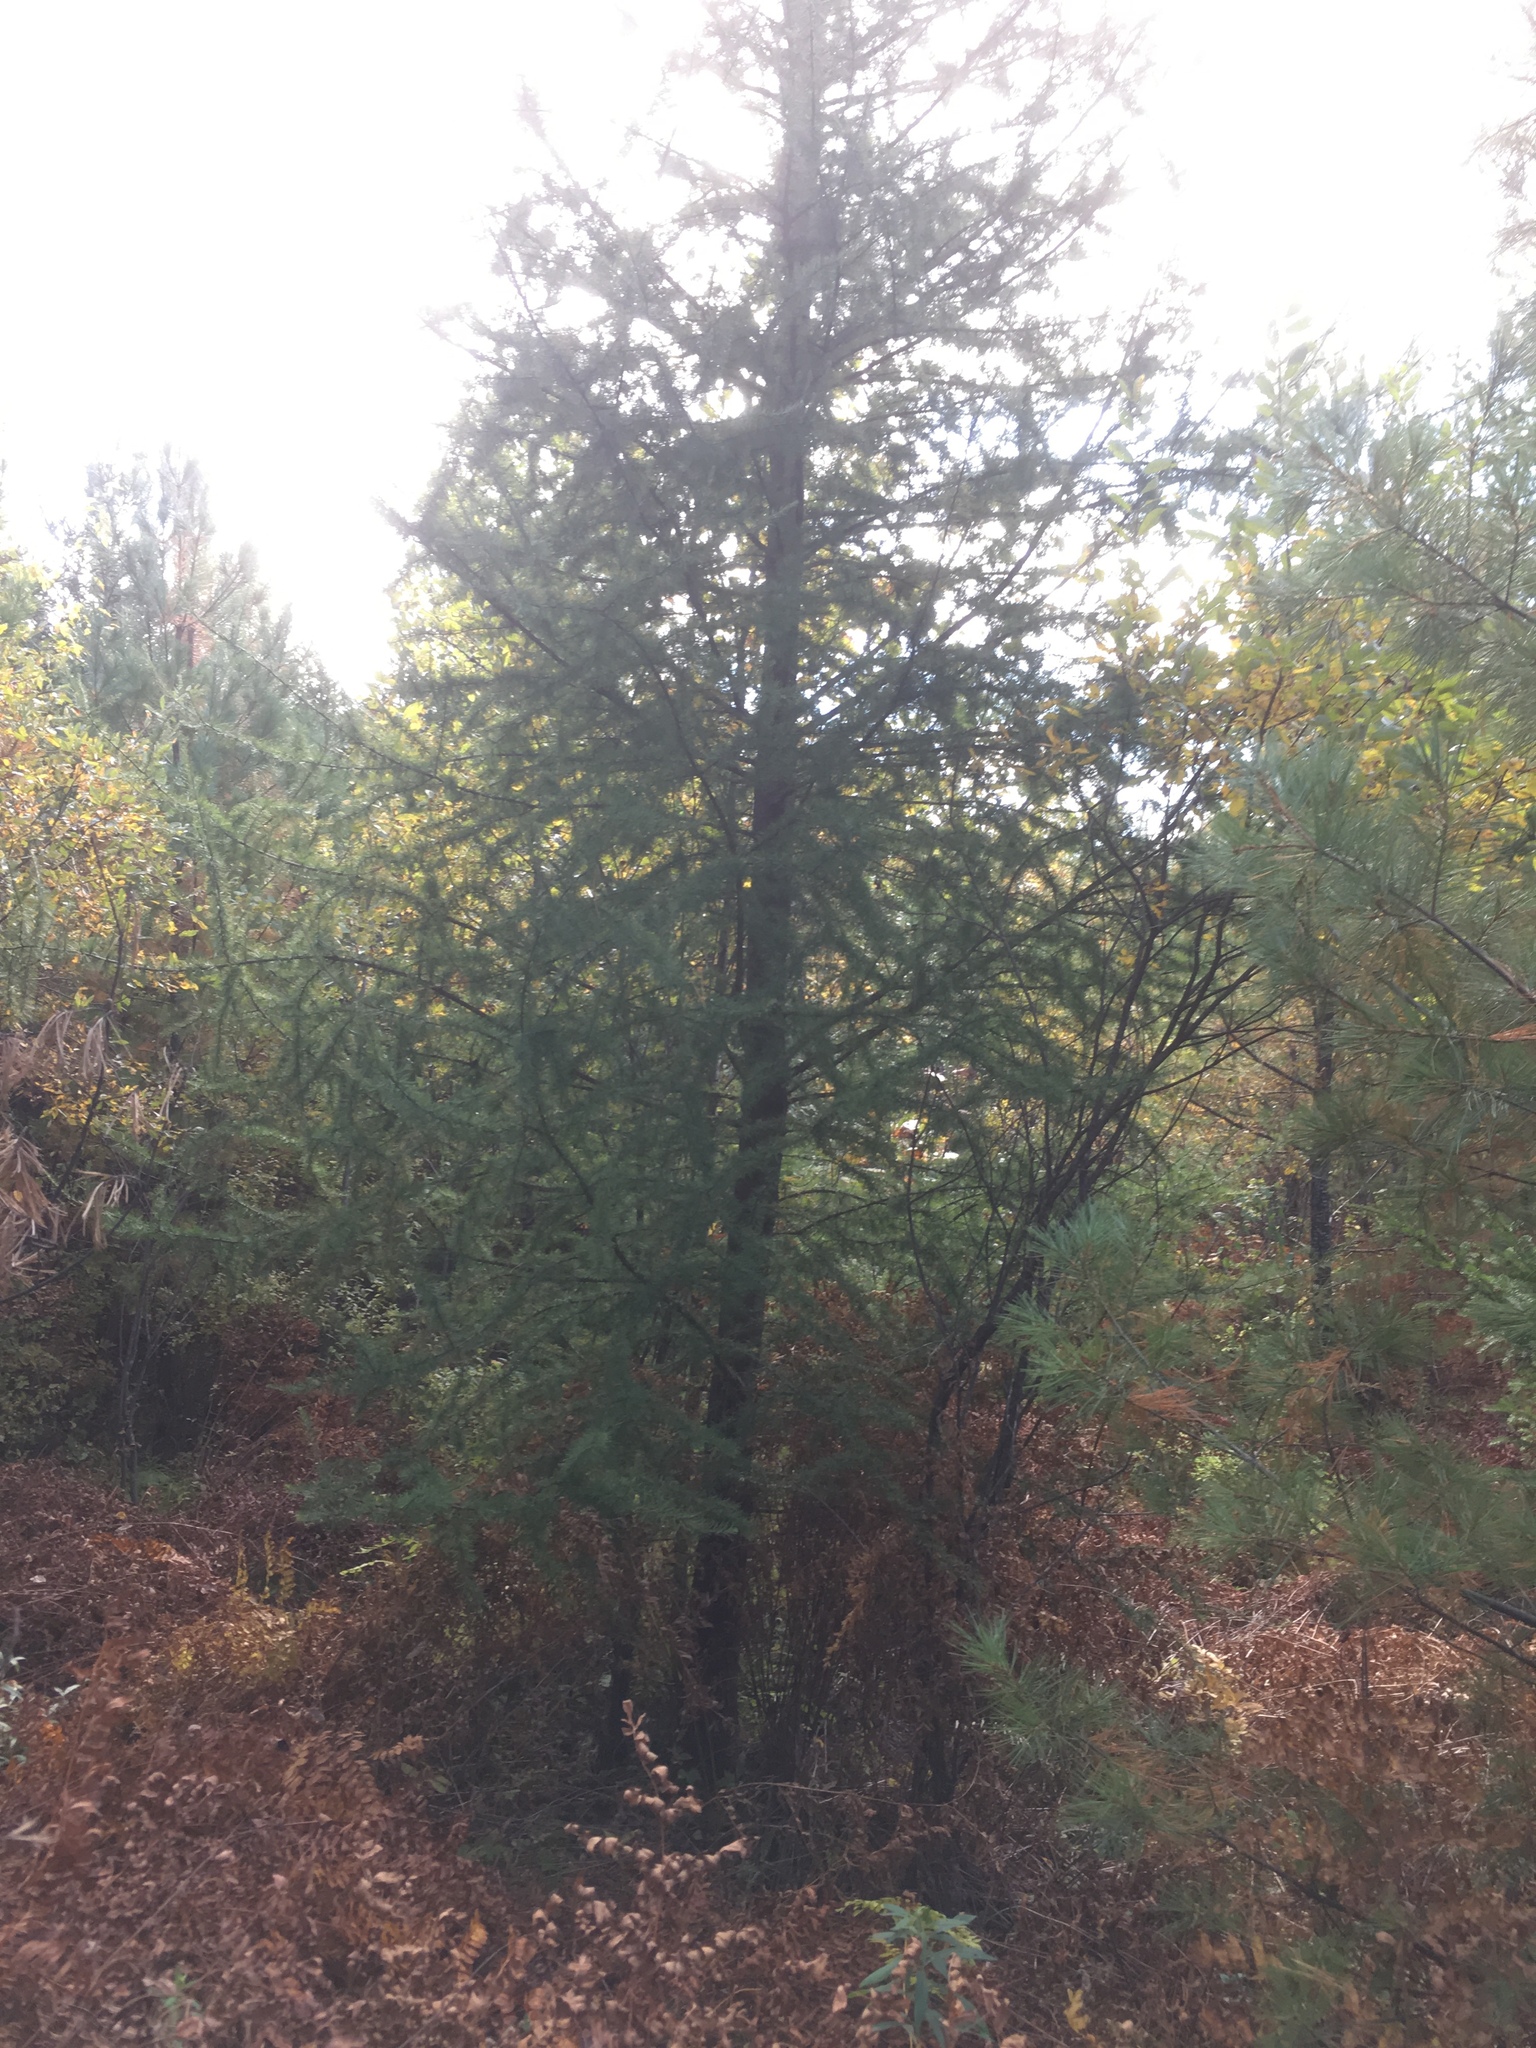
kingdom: Plantae
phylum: Tracheophyta
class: Pinopsida
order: Pinales
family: Pinaceae
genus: Larix
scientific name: Larix laricina
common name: American larch
